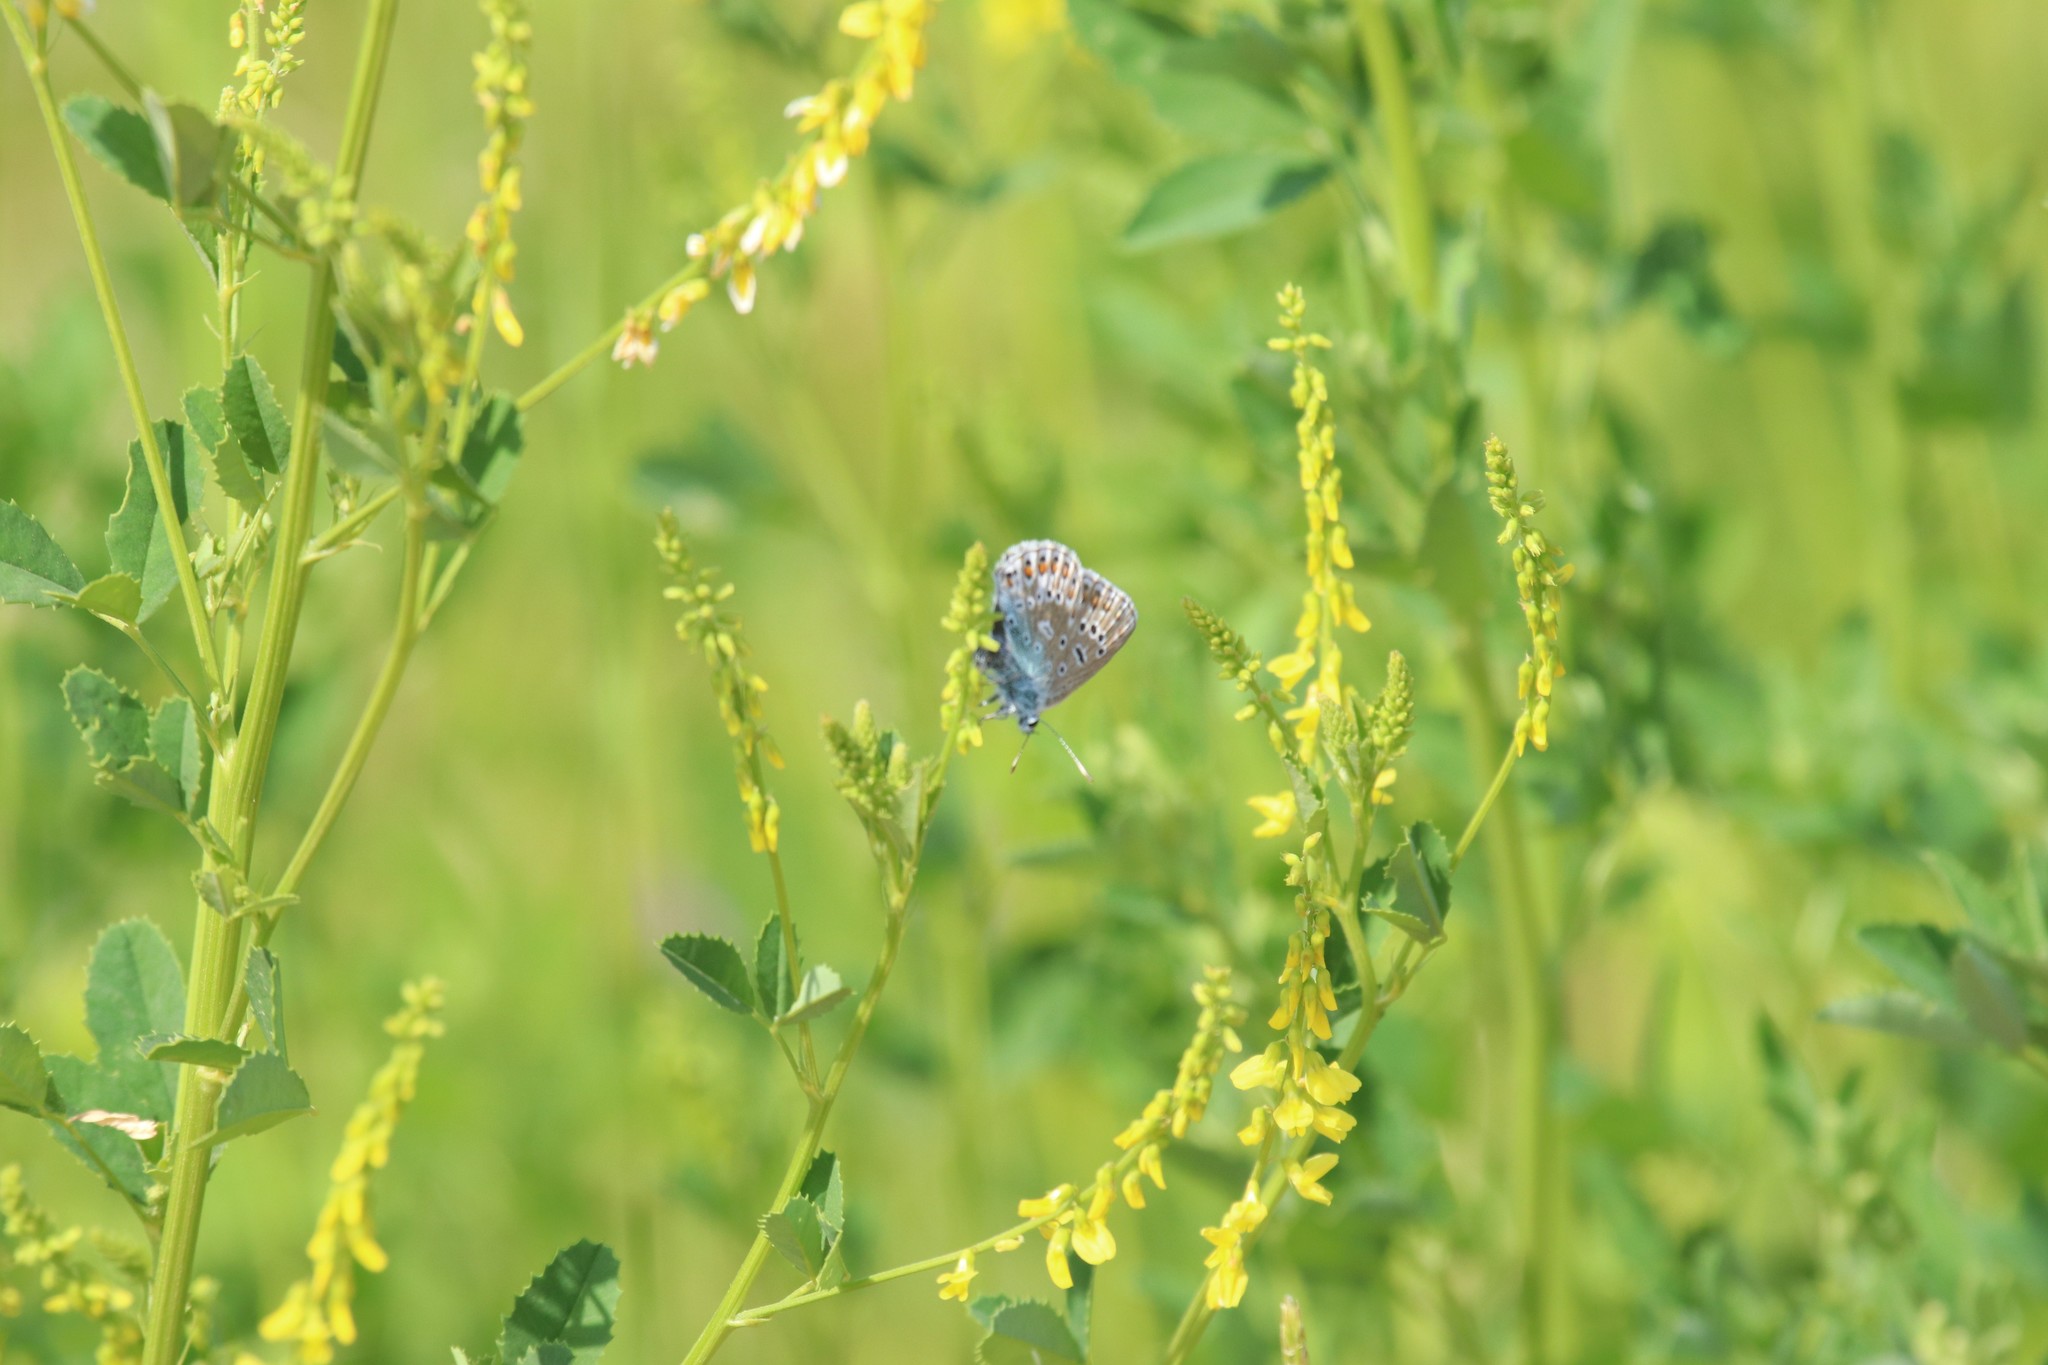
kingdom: Plantae
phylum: Tracheophyta
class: Magnoliopsida
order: Fabales
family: Fabaceae
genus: Melilotus
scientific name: Melilotus officinalis
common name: Sweetclover
